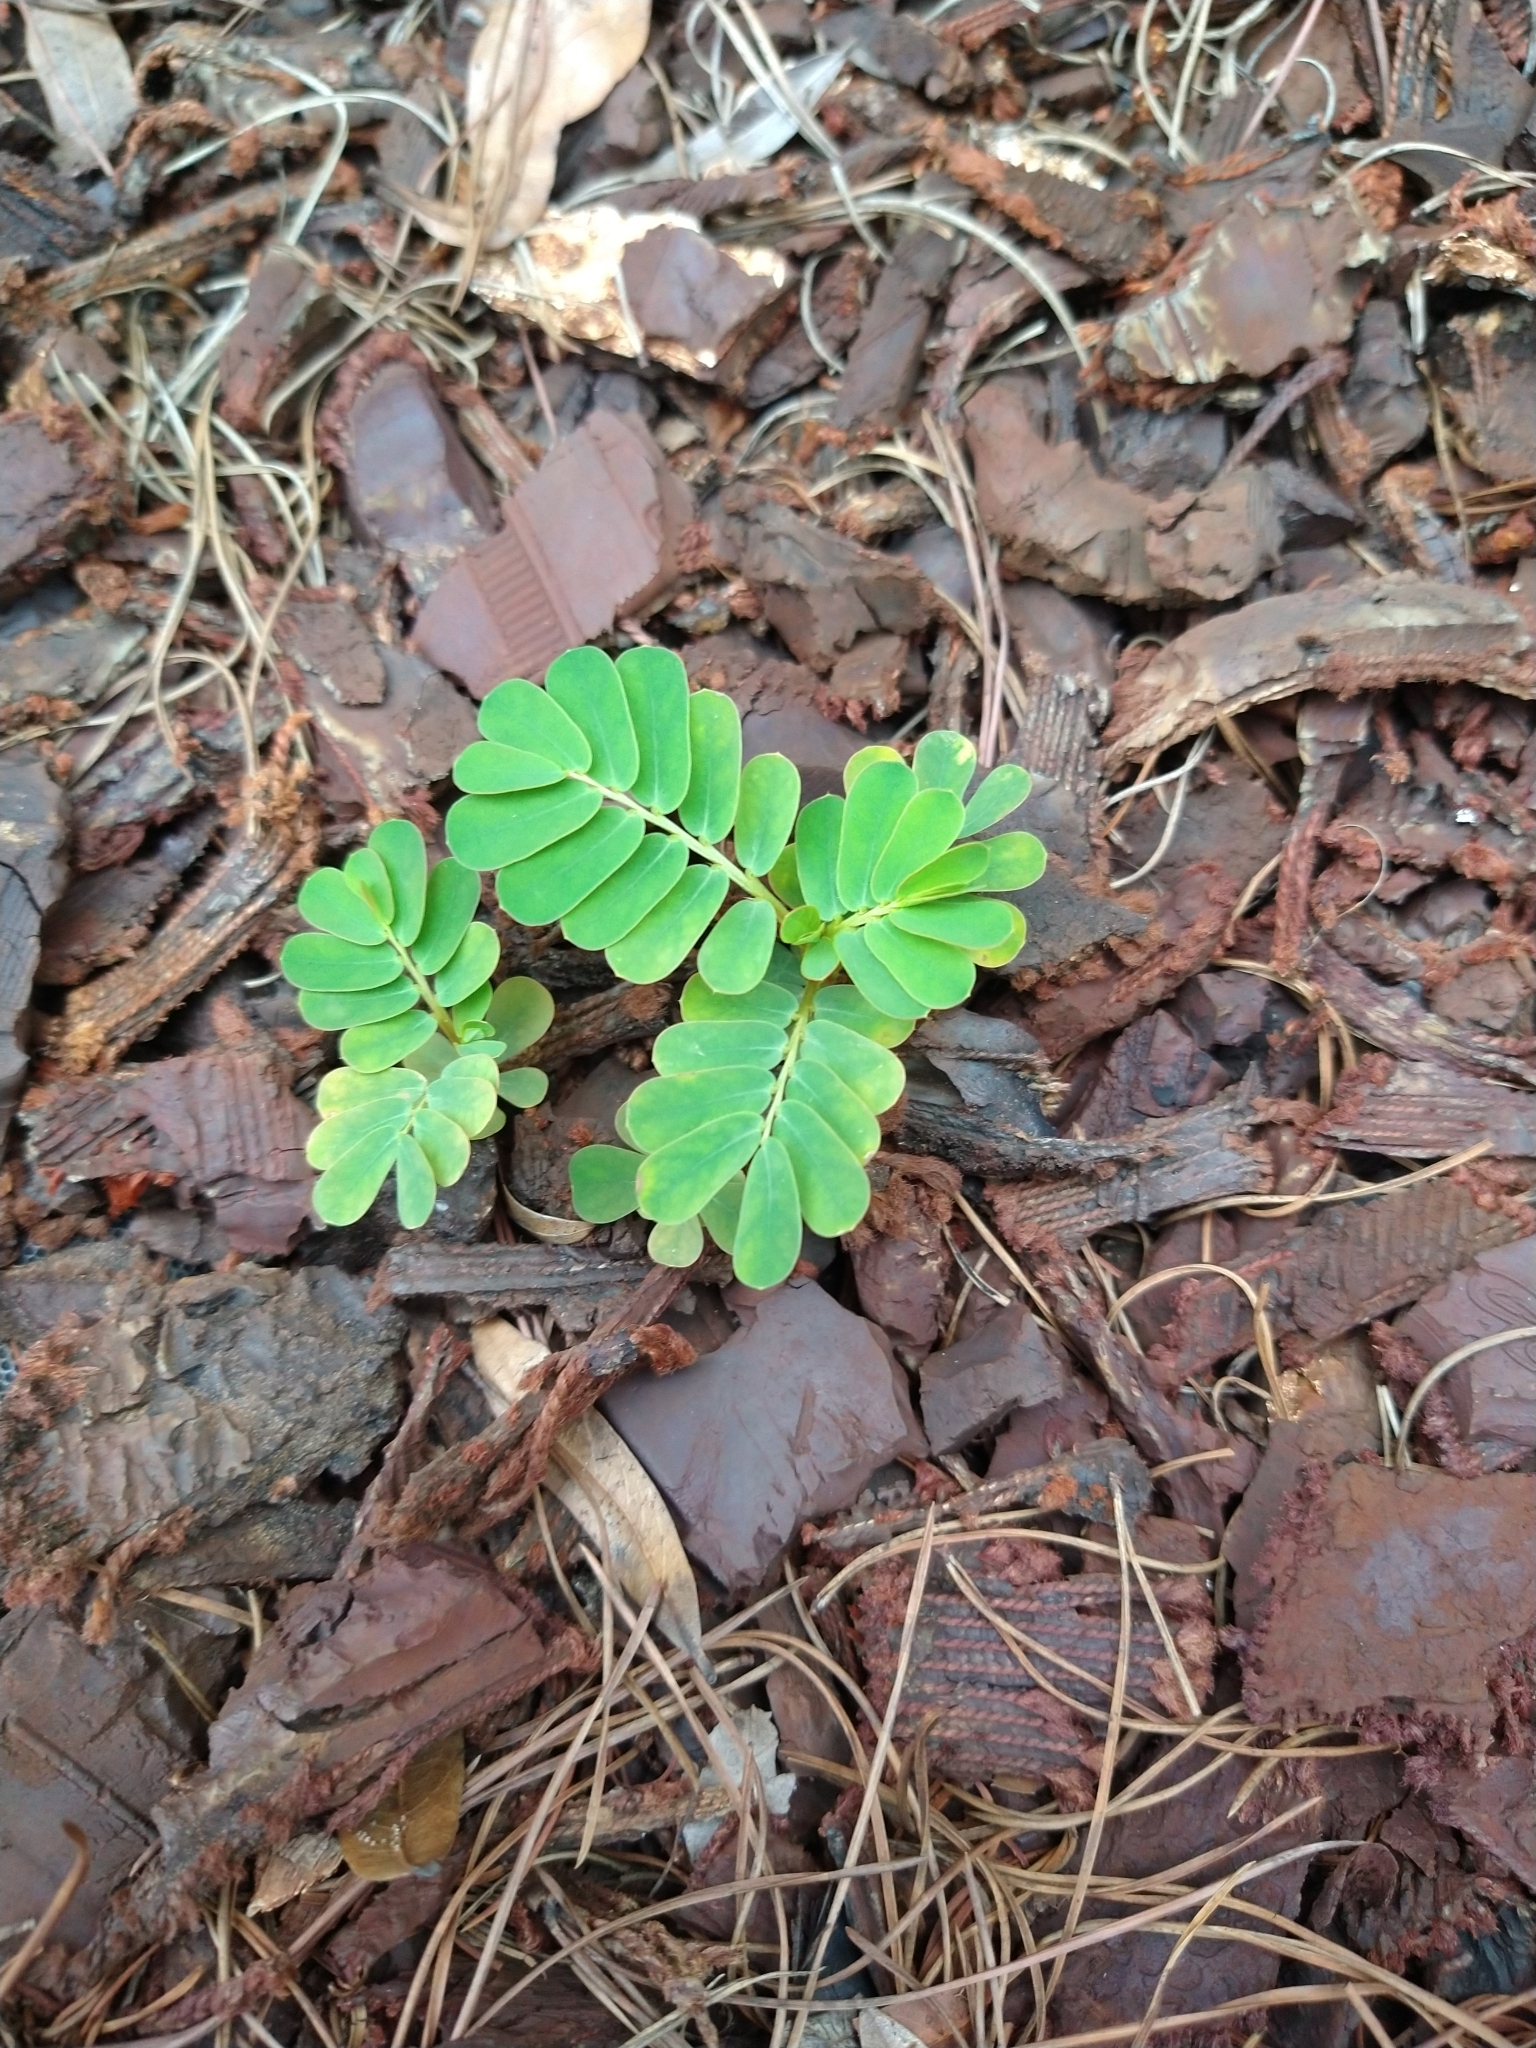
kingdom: Plantae
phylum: Tracheophyta
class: Magnoliopsida
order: Malpighiales
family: Phyllanthaceae
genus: Phyllanthus
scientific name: Phyllanthus urinaria
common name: Chamber bitter
